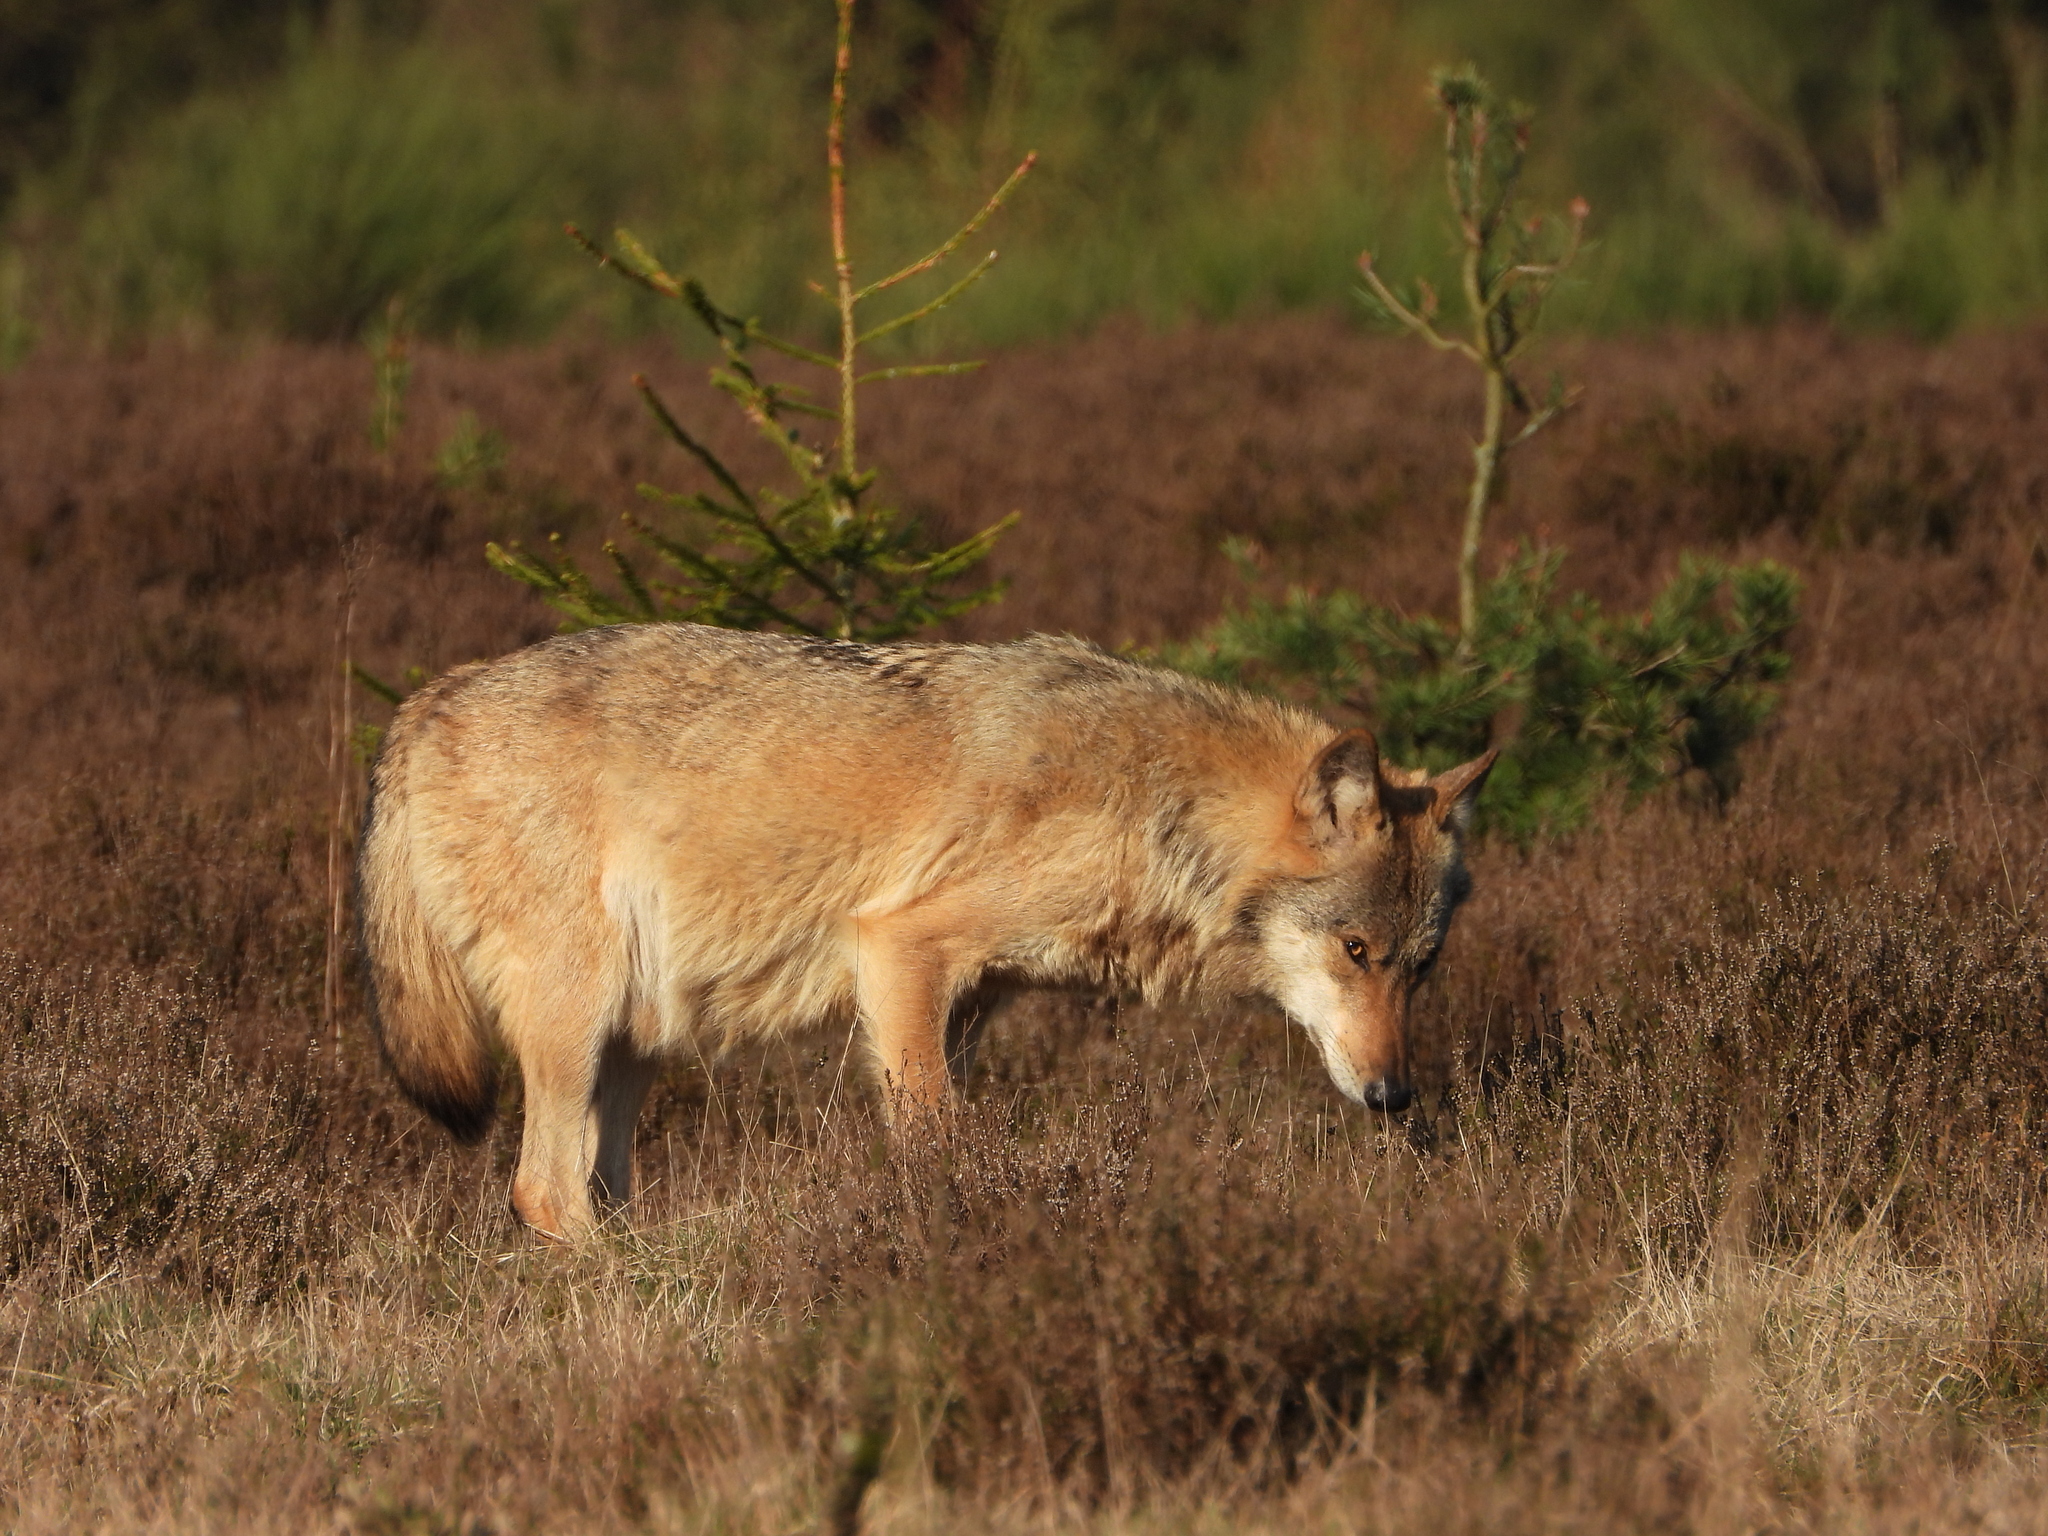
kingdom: Animalia
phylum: Chordata
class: Mammalia
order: Carnivora
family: Canidae
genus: Canis
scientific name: Canis lupus
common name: Gray wolf
